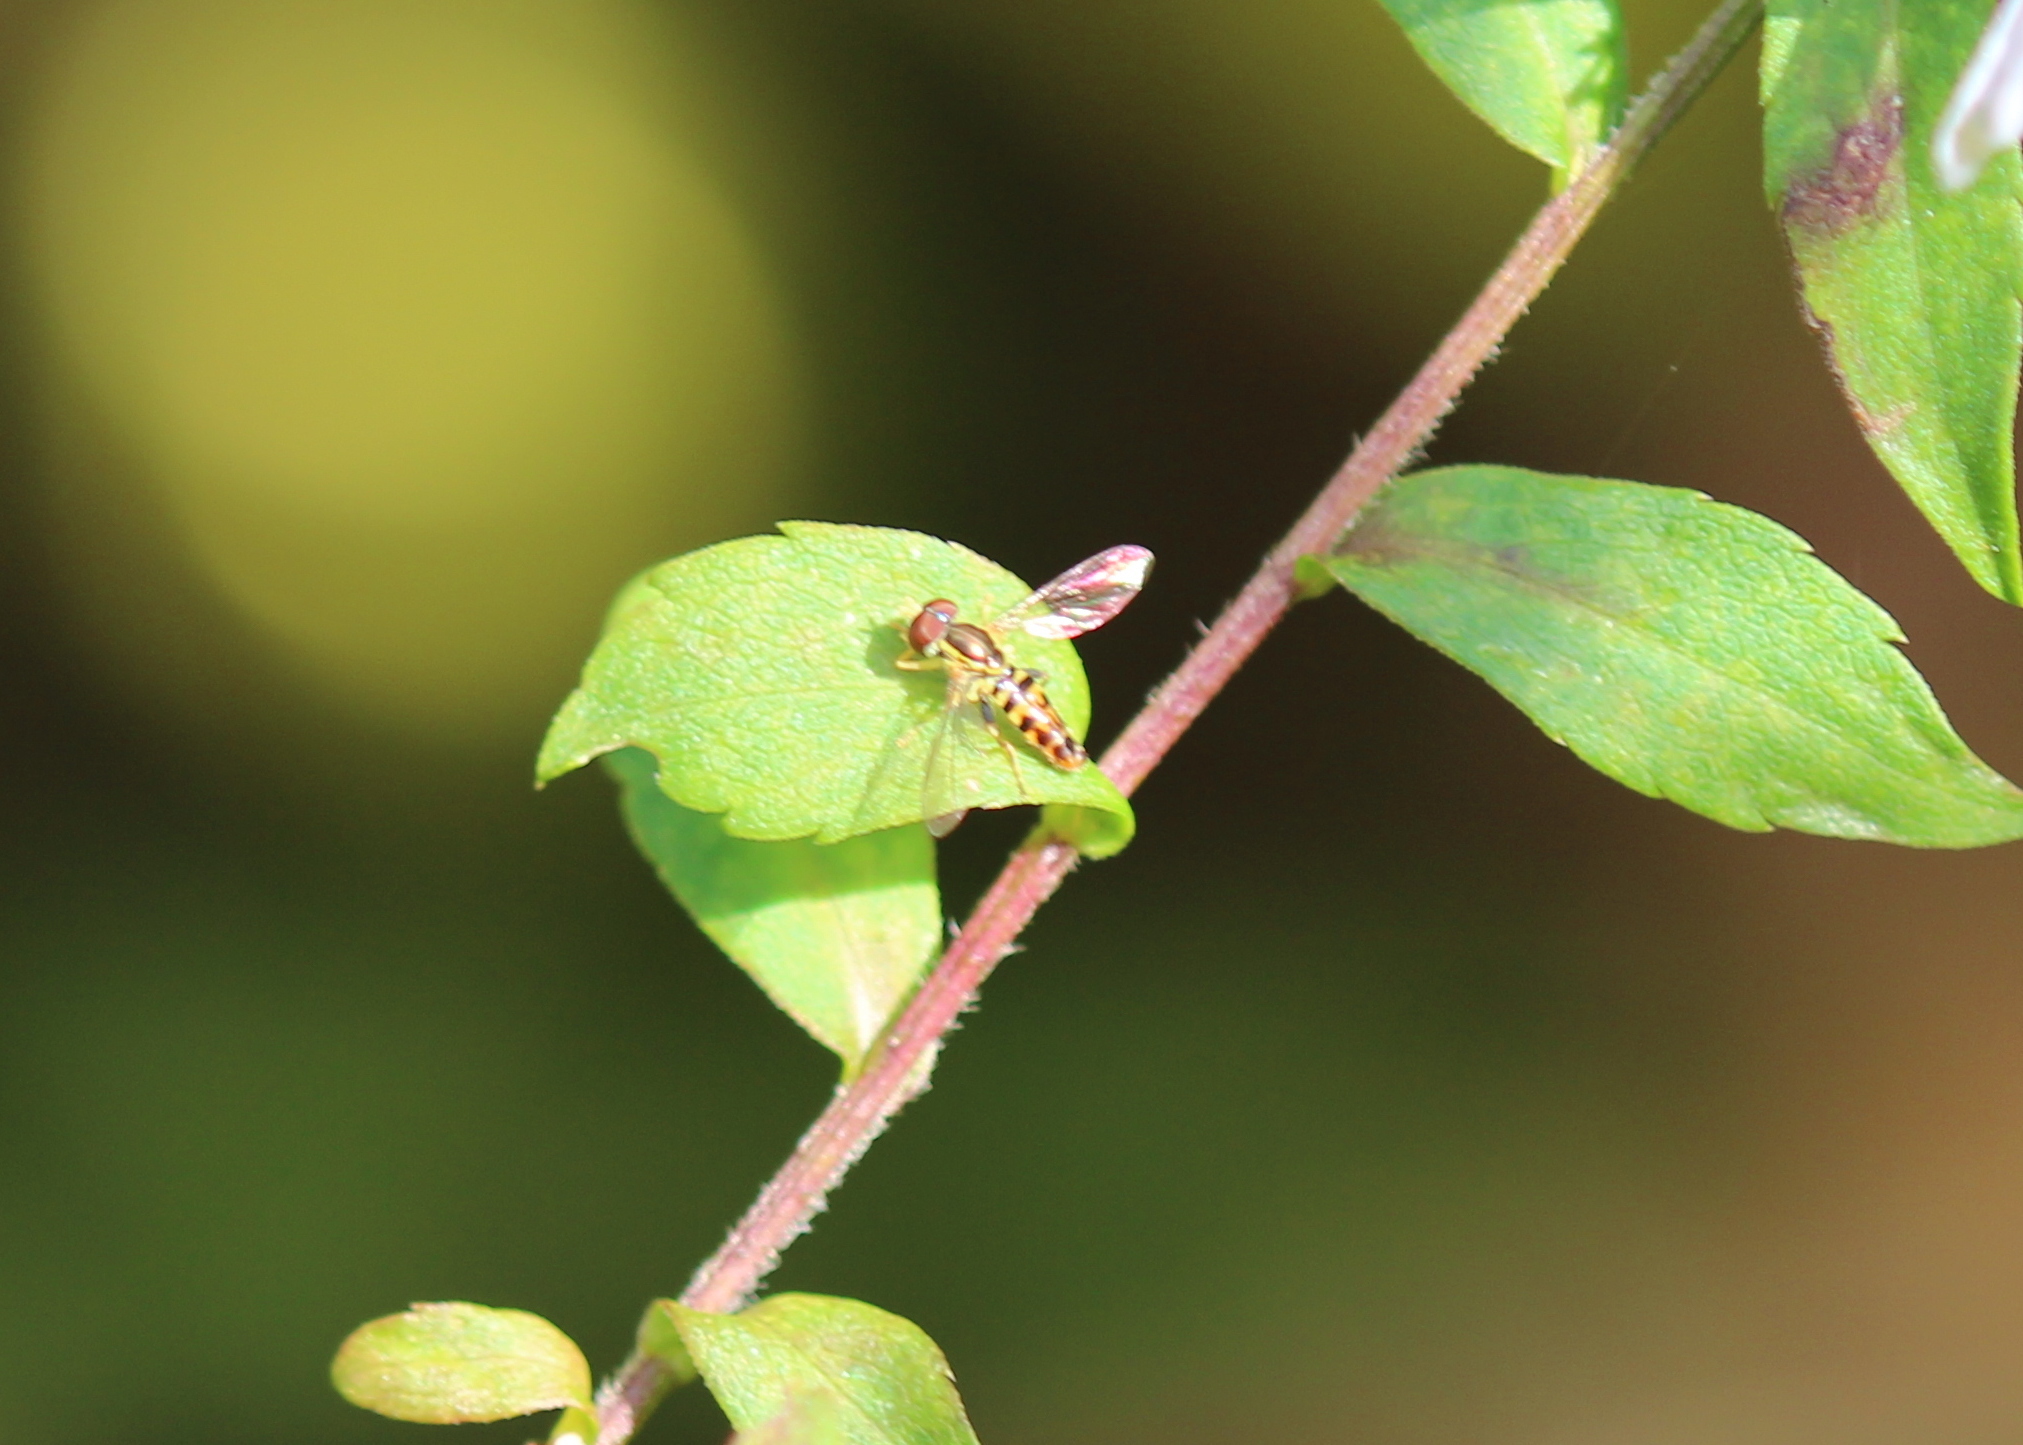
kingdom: Animalia
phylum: Arthropoda
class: Insecta
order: Diptera
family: Syrphidae
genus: Toxomerus
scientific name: Toxomerus geminatus
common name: Eastern calligrapher
